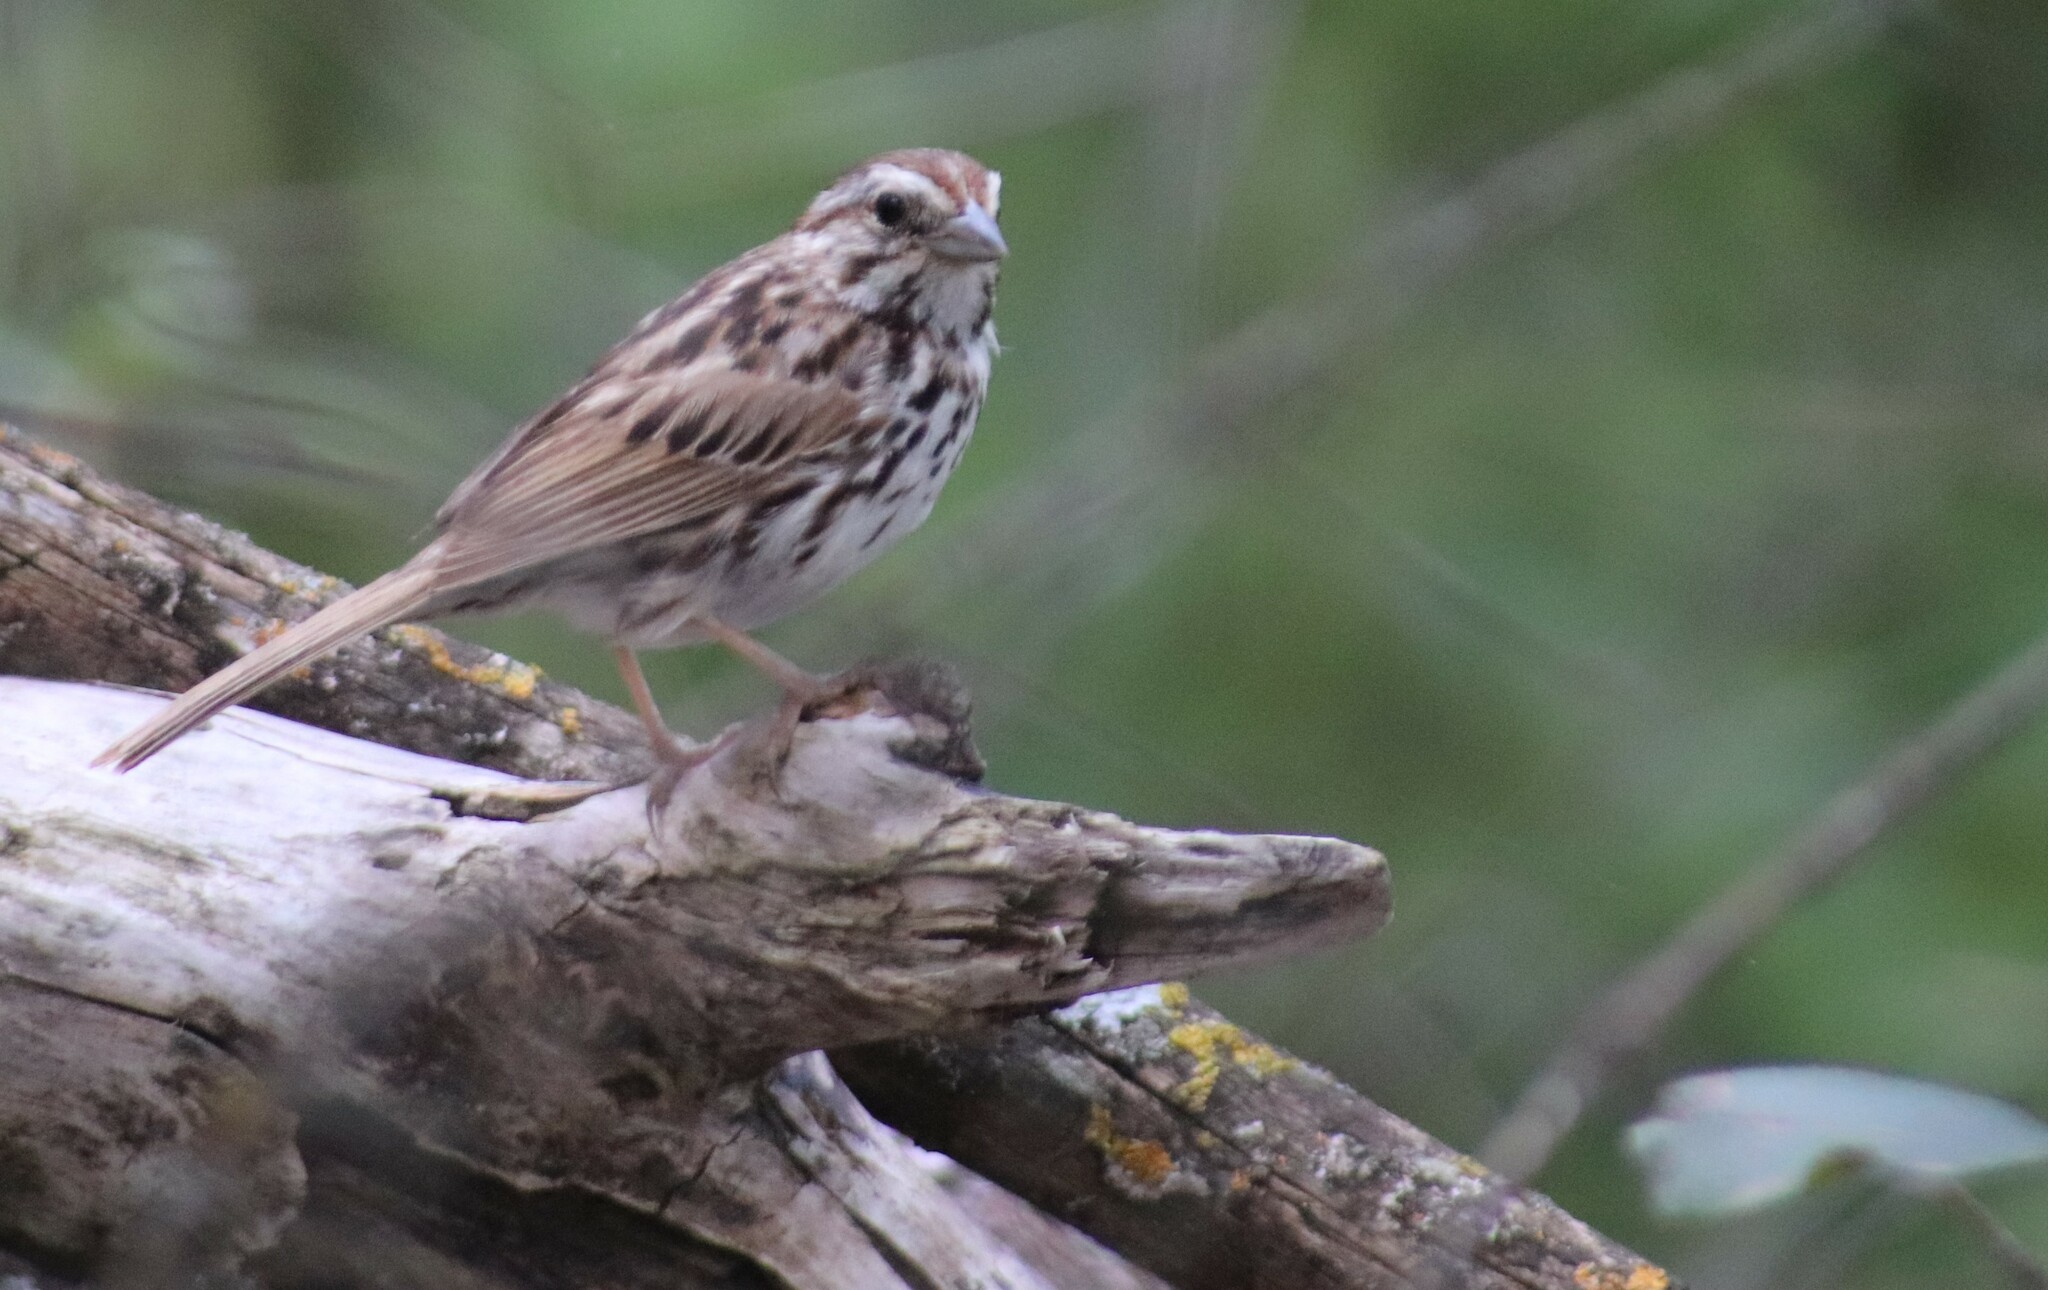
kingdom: Animalia
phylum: Chordata
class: Aves
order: Passeriformes
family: Passerellidae
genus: Melospiza
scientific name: Melospiza melodia
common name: Song sparrow
